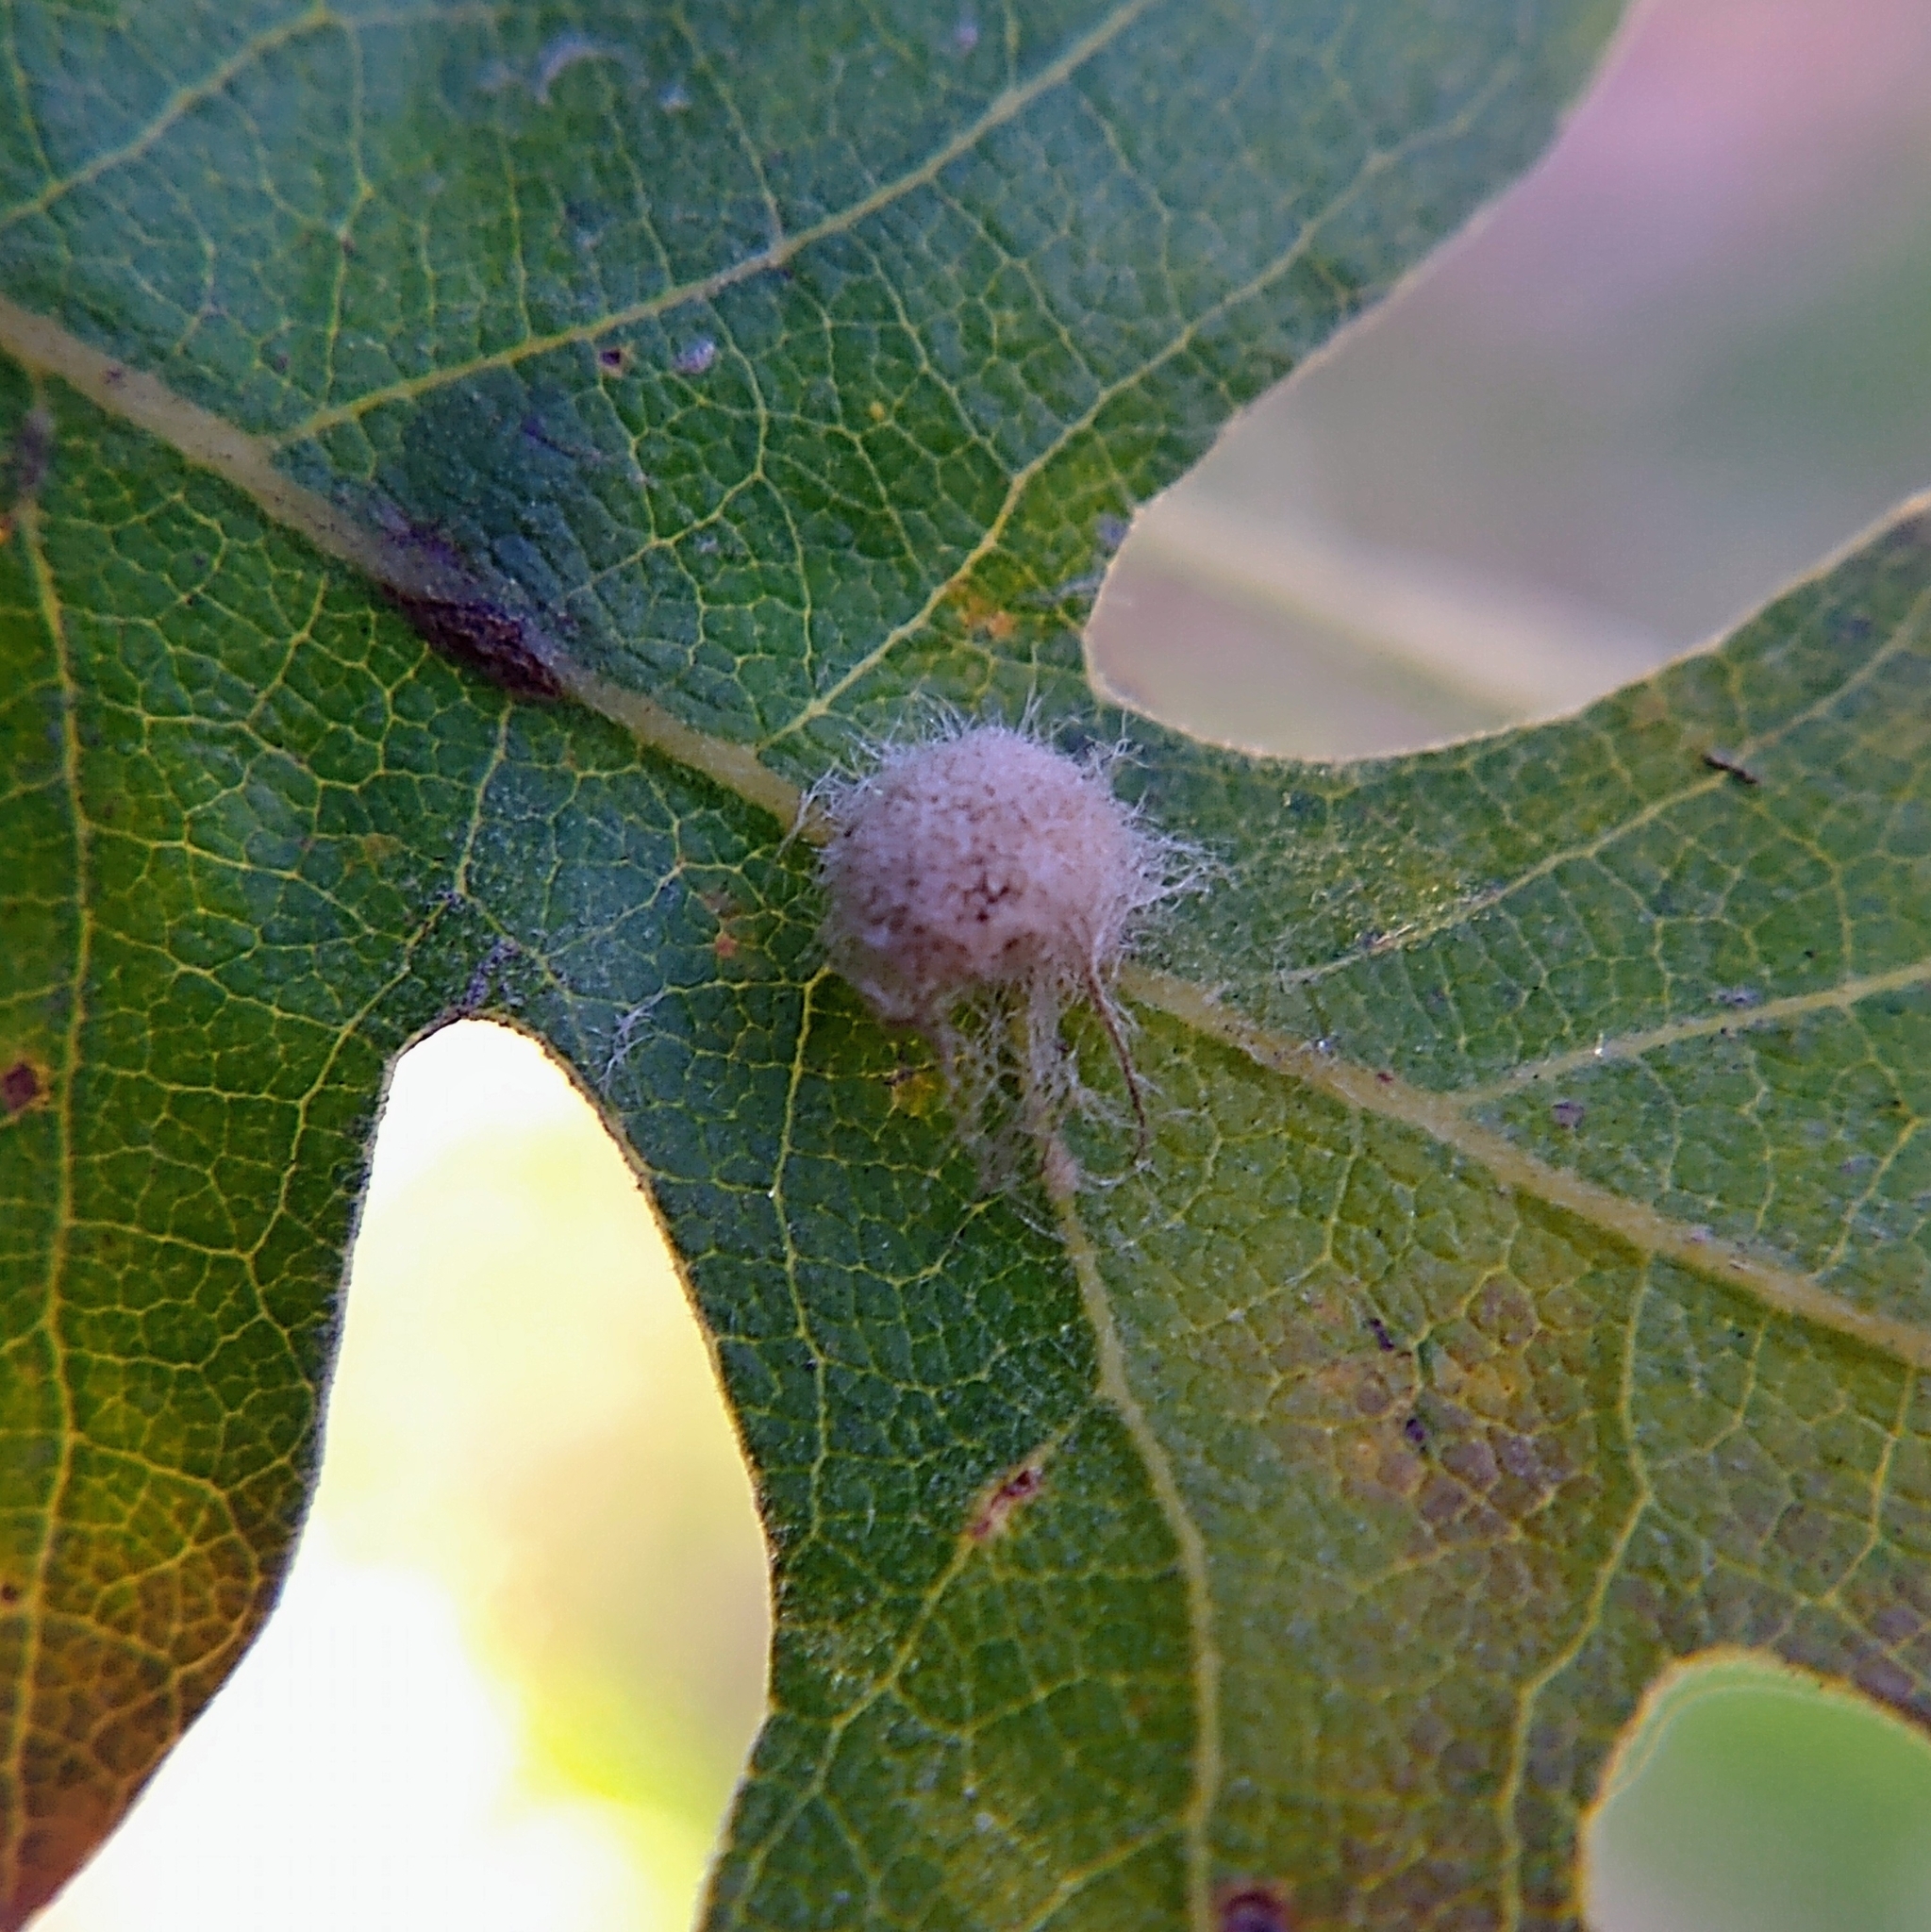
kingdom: Animalia
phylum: Arthropoda
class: Insecta
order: Hymenoptera
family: Cynipidae
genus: Andricus
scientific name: Andricus Druon fullawayi
